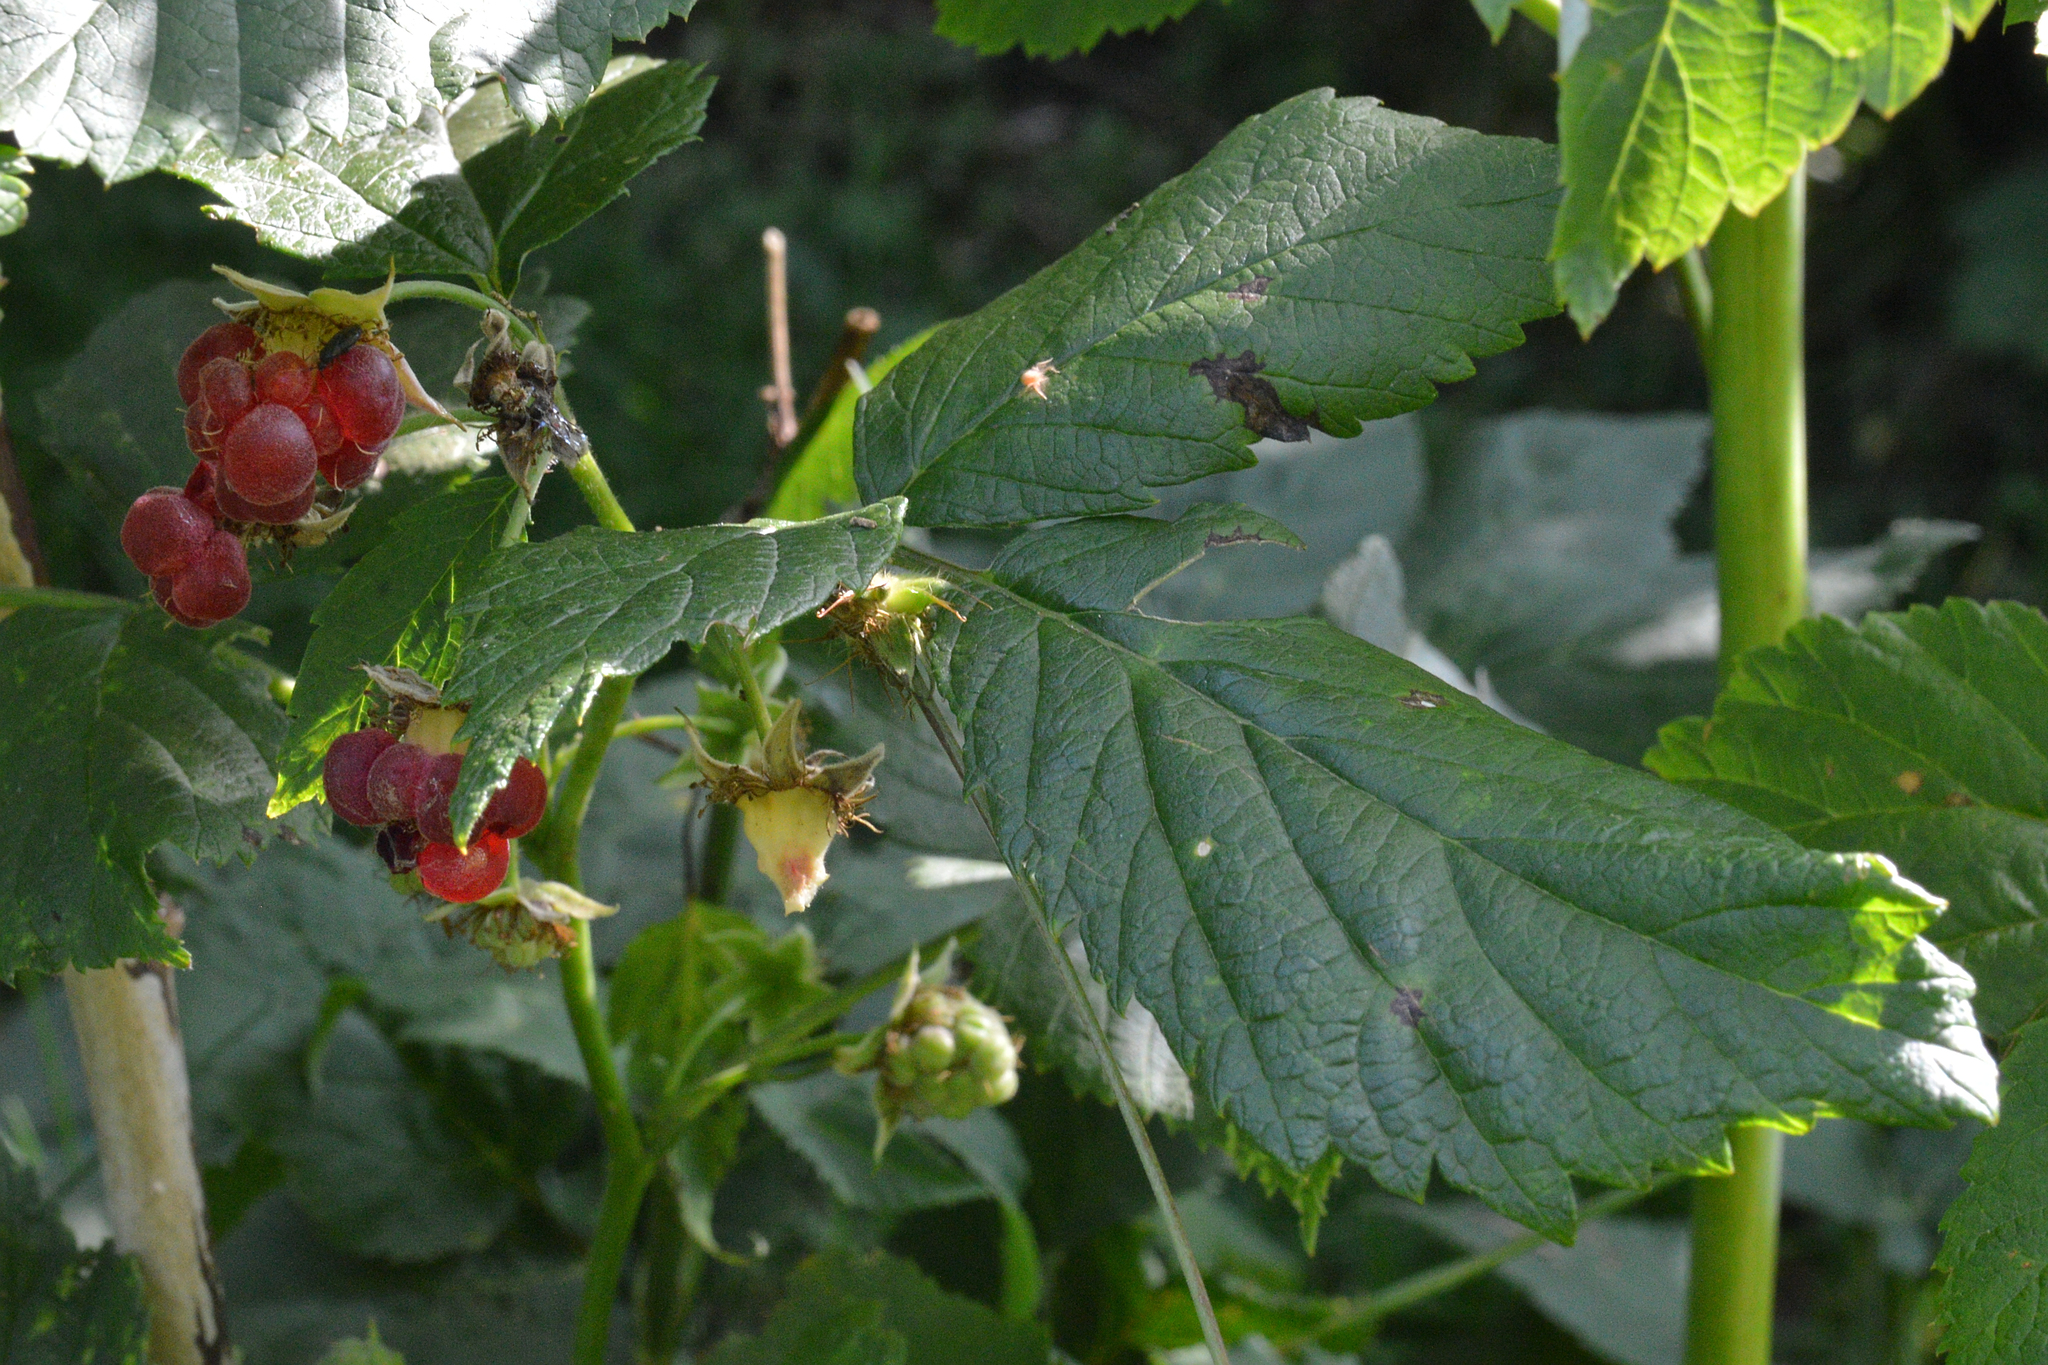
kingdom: Plantae
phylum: Tracheophyta
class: Magnoliopsida
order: Rosales
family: Rosaceae
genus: Rubus
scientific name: Rubus idaeus
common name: Raspberry
